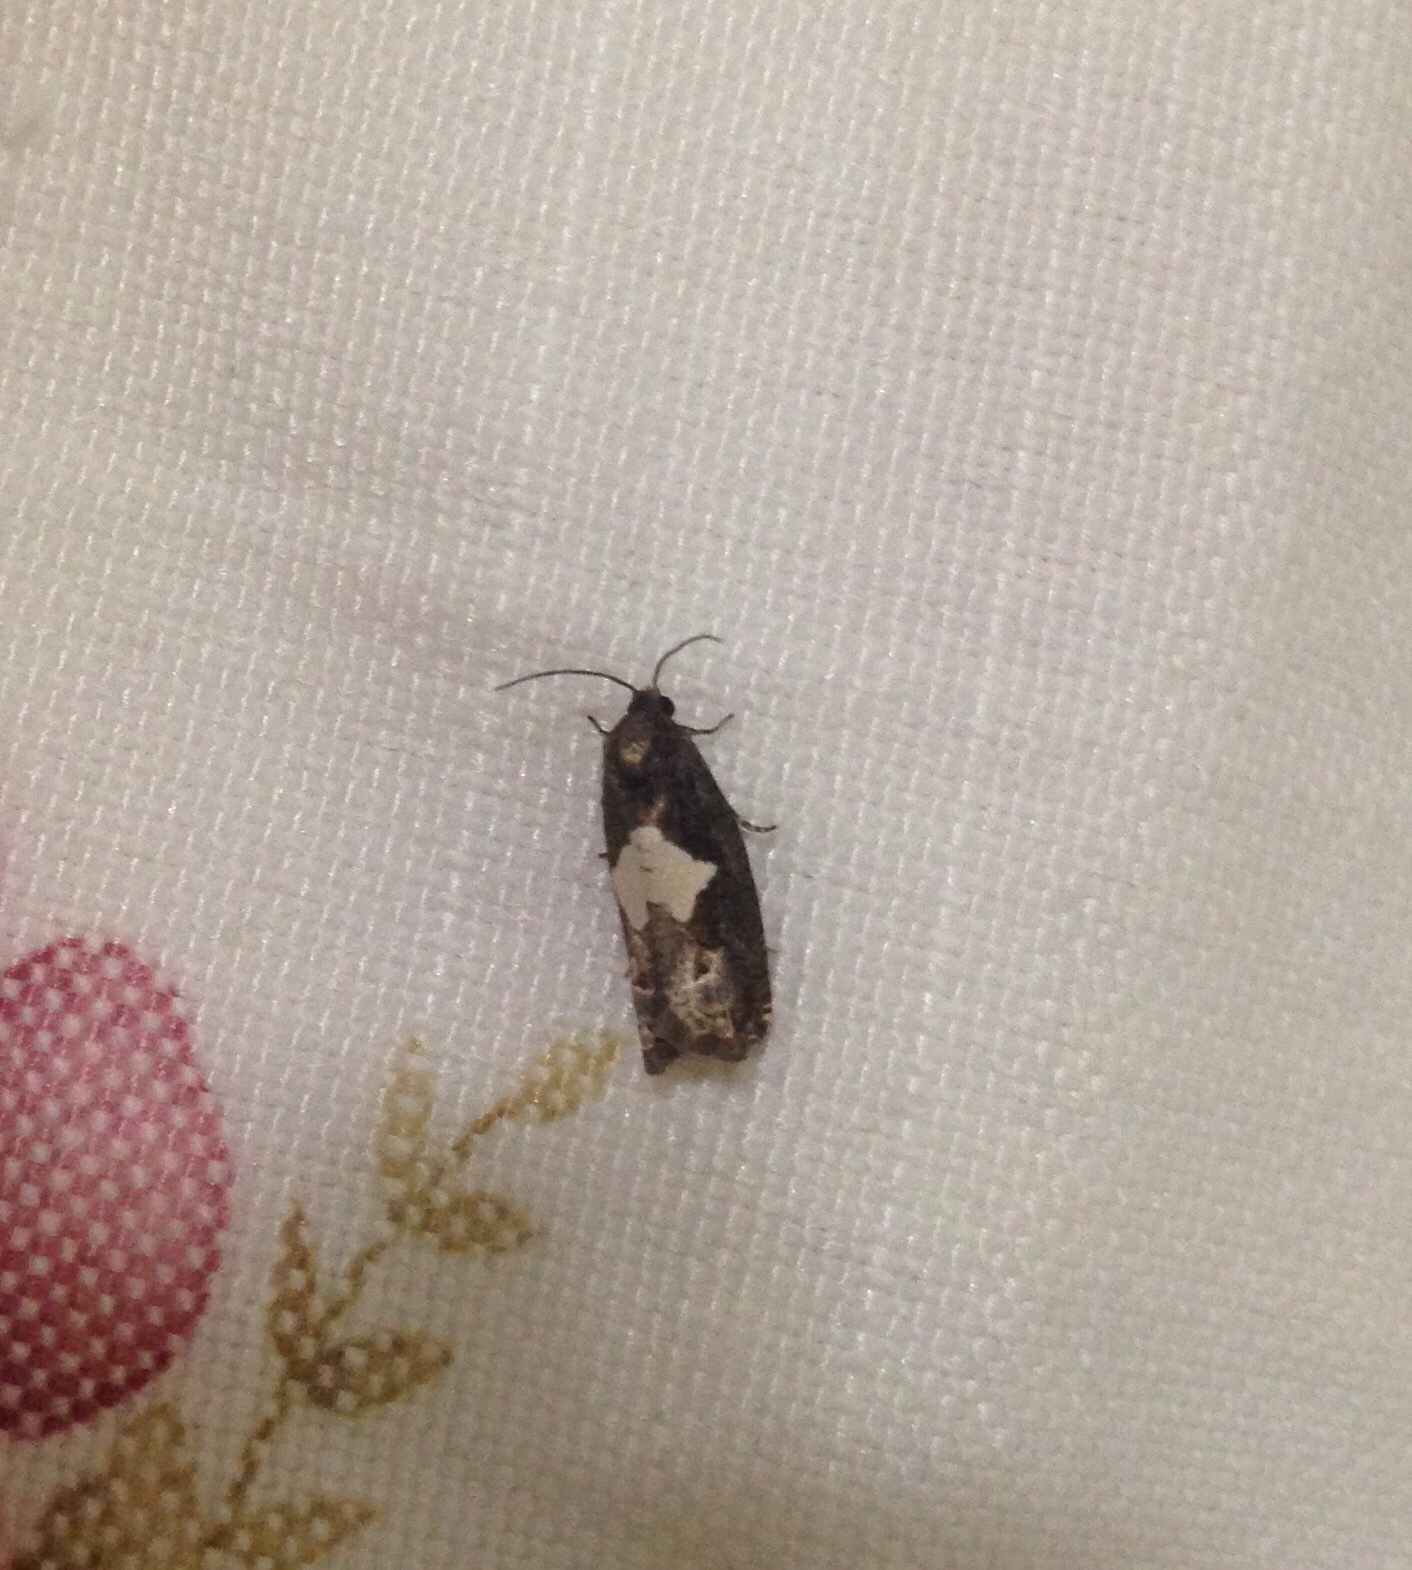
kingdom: Animalia
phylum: Arthropoda
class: Insecta
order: Lepidoptera
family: Tortricidae
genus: Epiblema
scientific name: Epiblema otiosana
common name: Bidens borer moth
